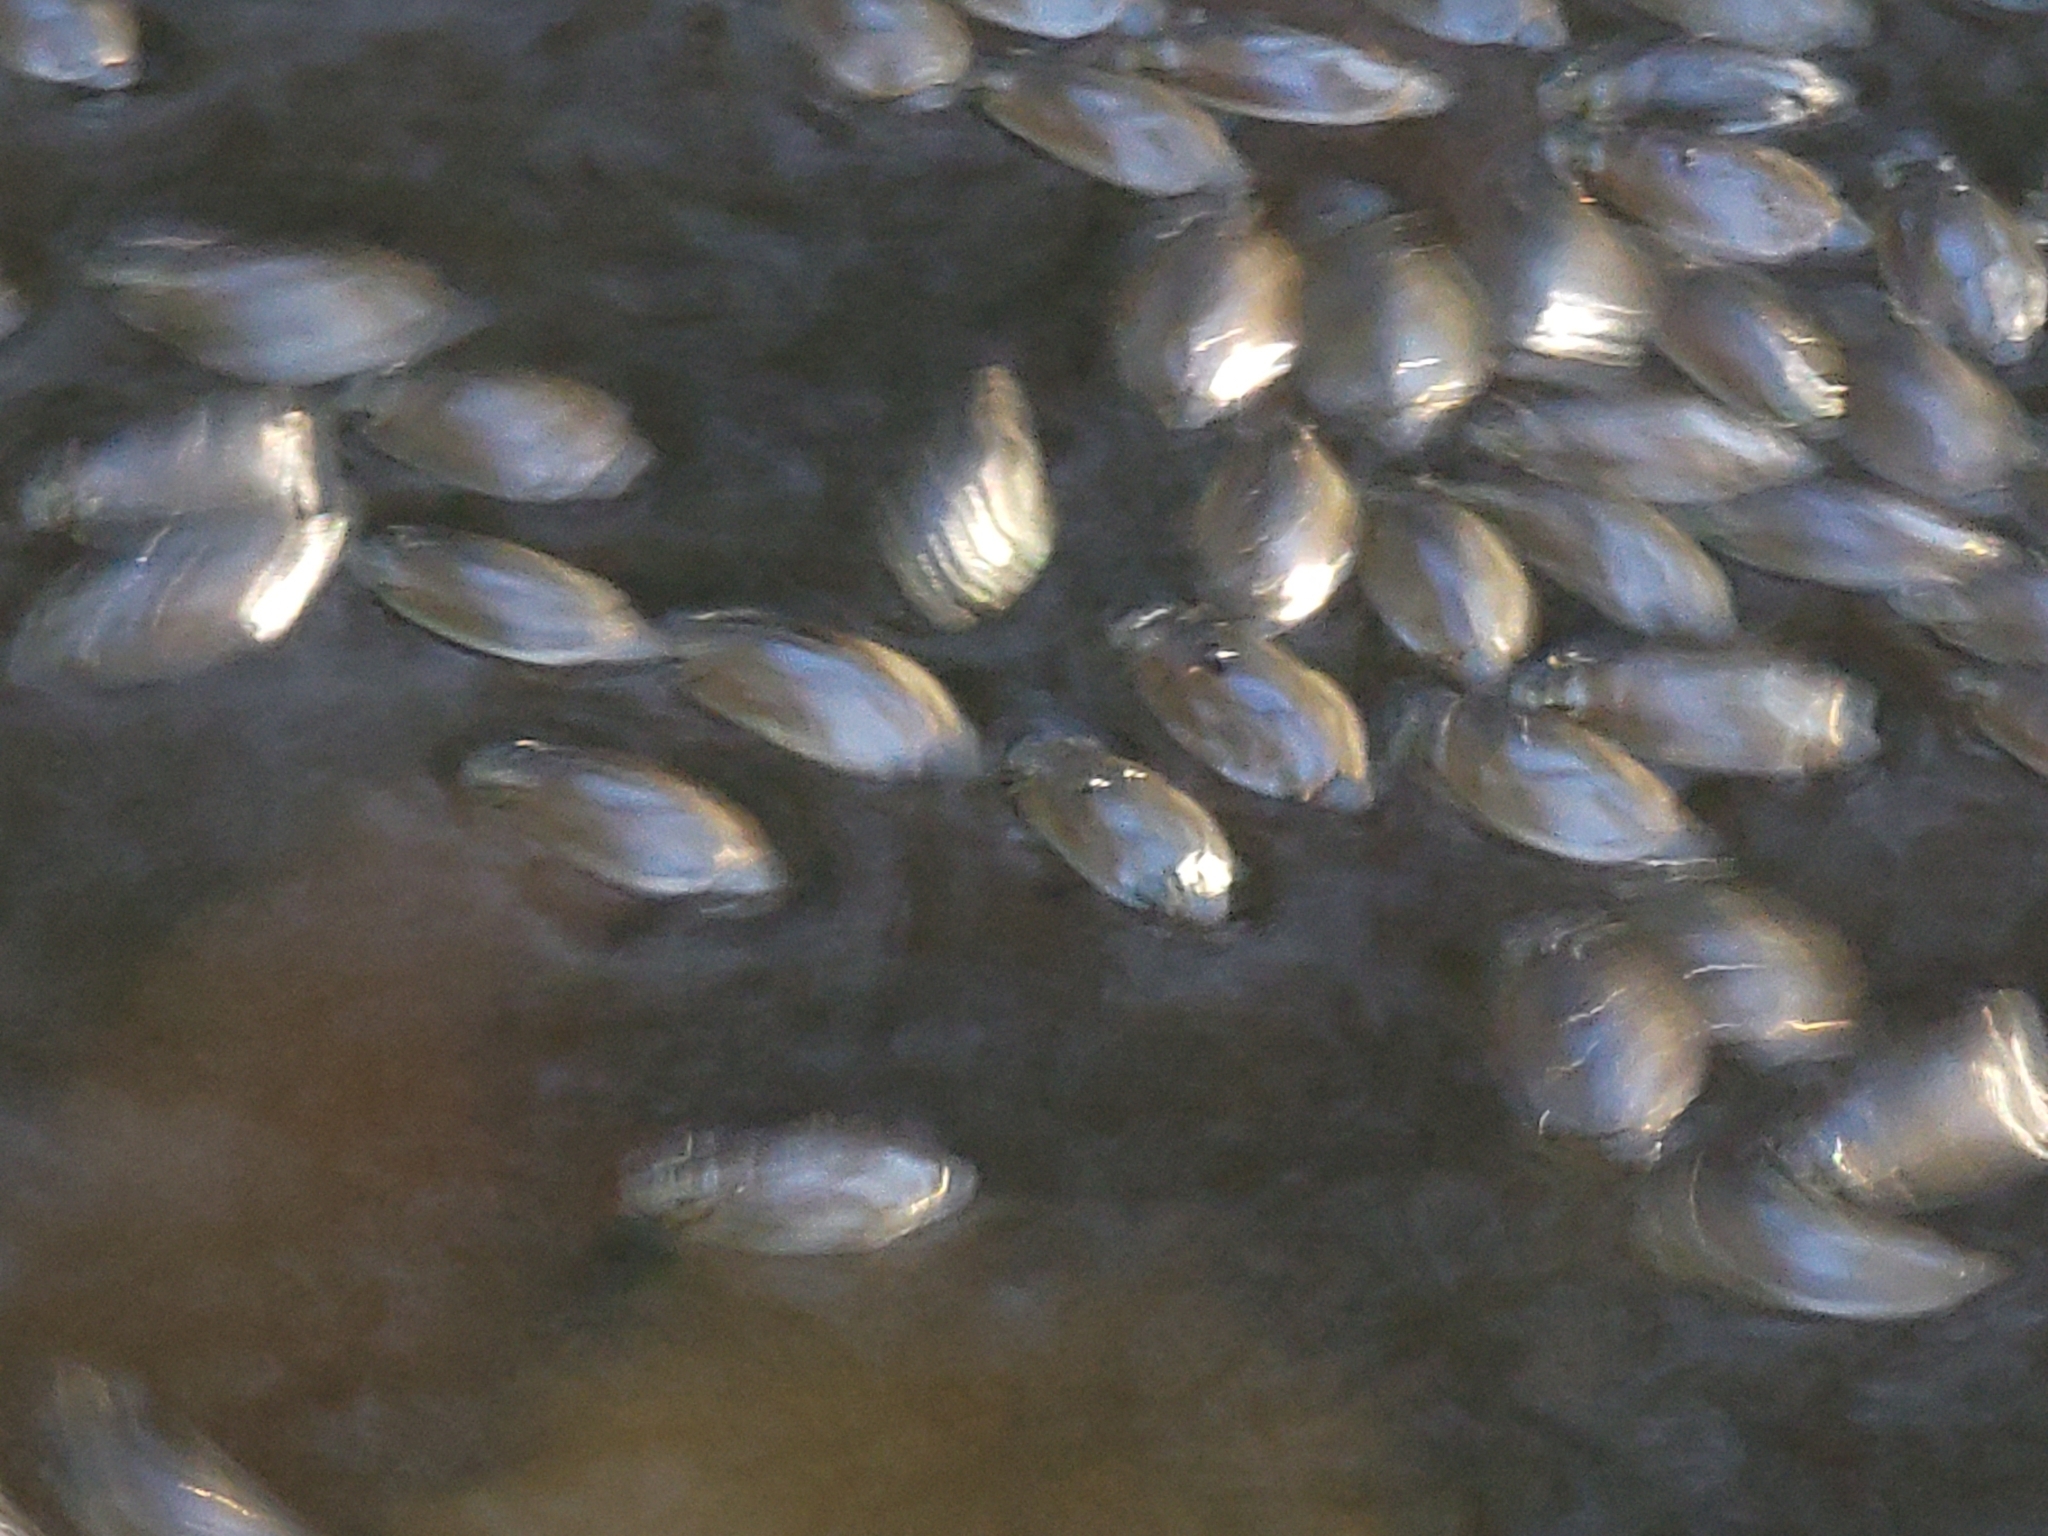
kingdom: Animalia
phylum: Arthropoda
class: Insecta
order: Coleoptera
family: Gyrinidae
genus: Dineutus
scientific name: Dineutus
